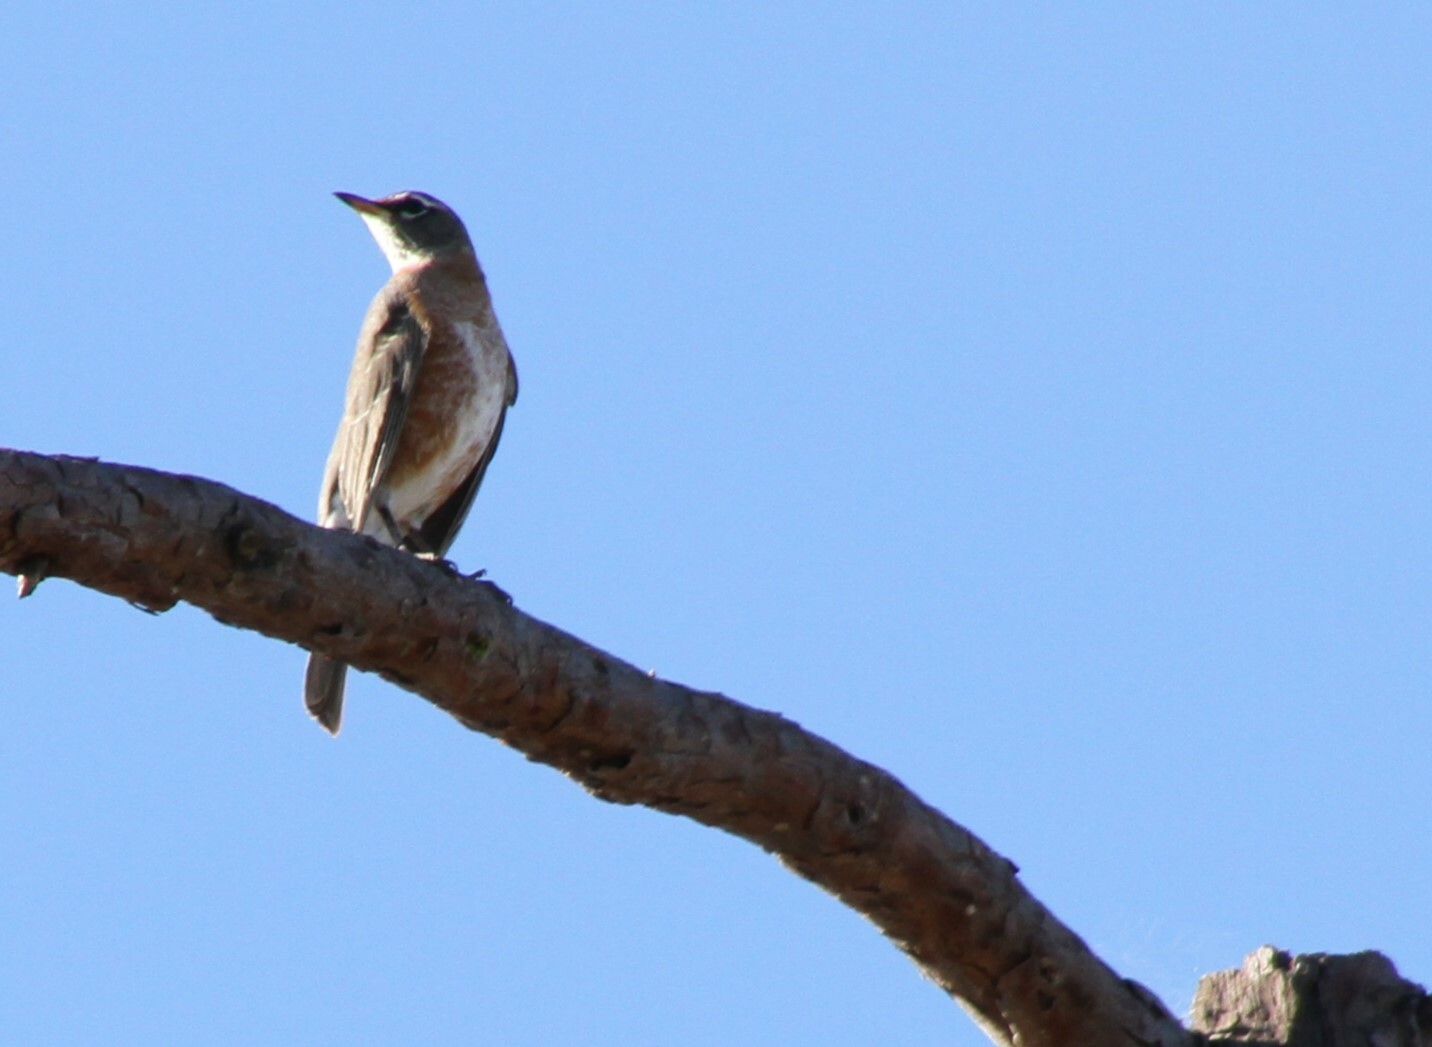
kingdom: Animalia
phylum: Chordata
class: Aves
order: Passeriformes
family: Turdidae
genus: Turdus
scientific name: Turdus migratorius
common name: American robin
